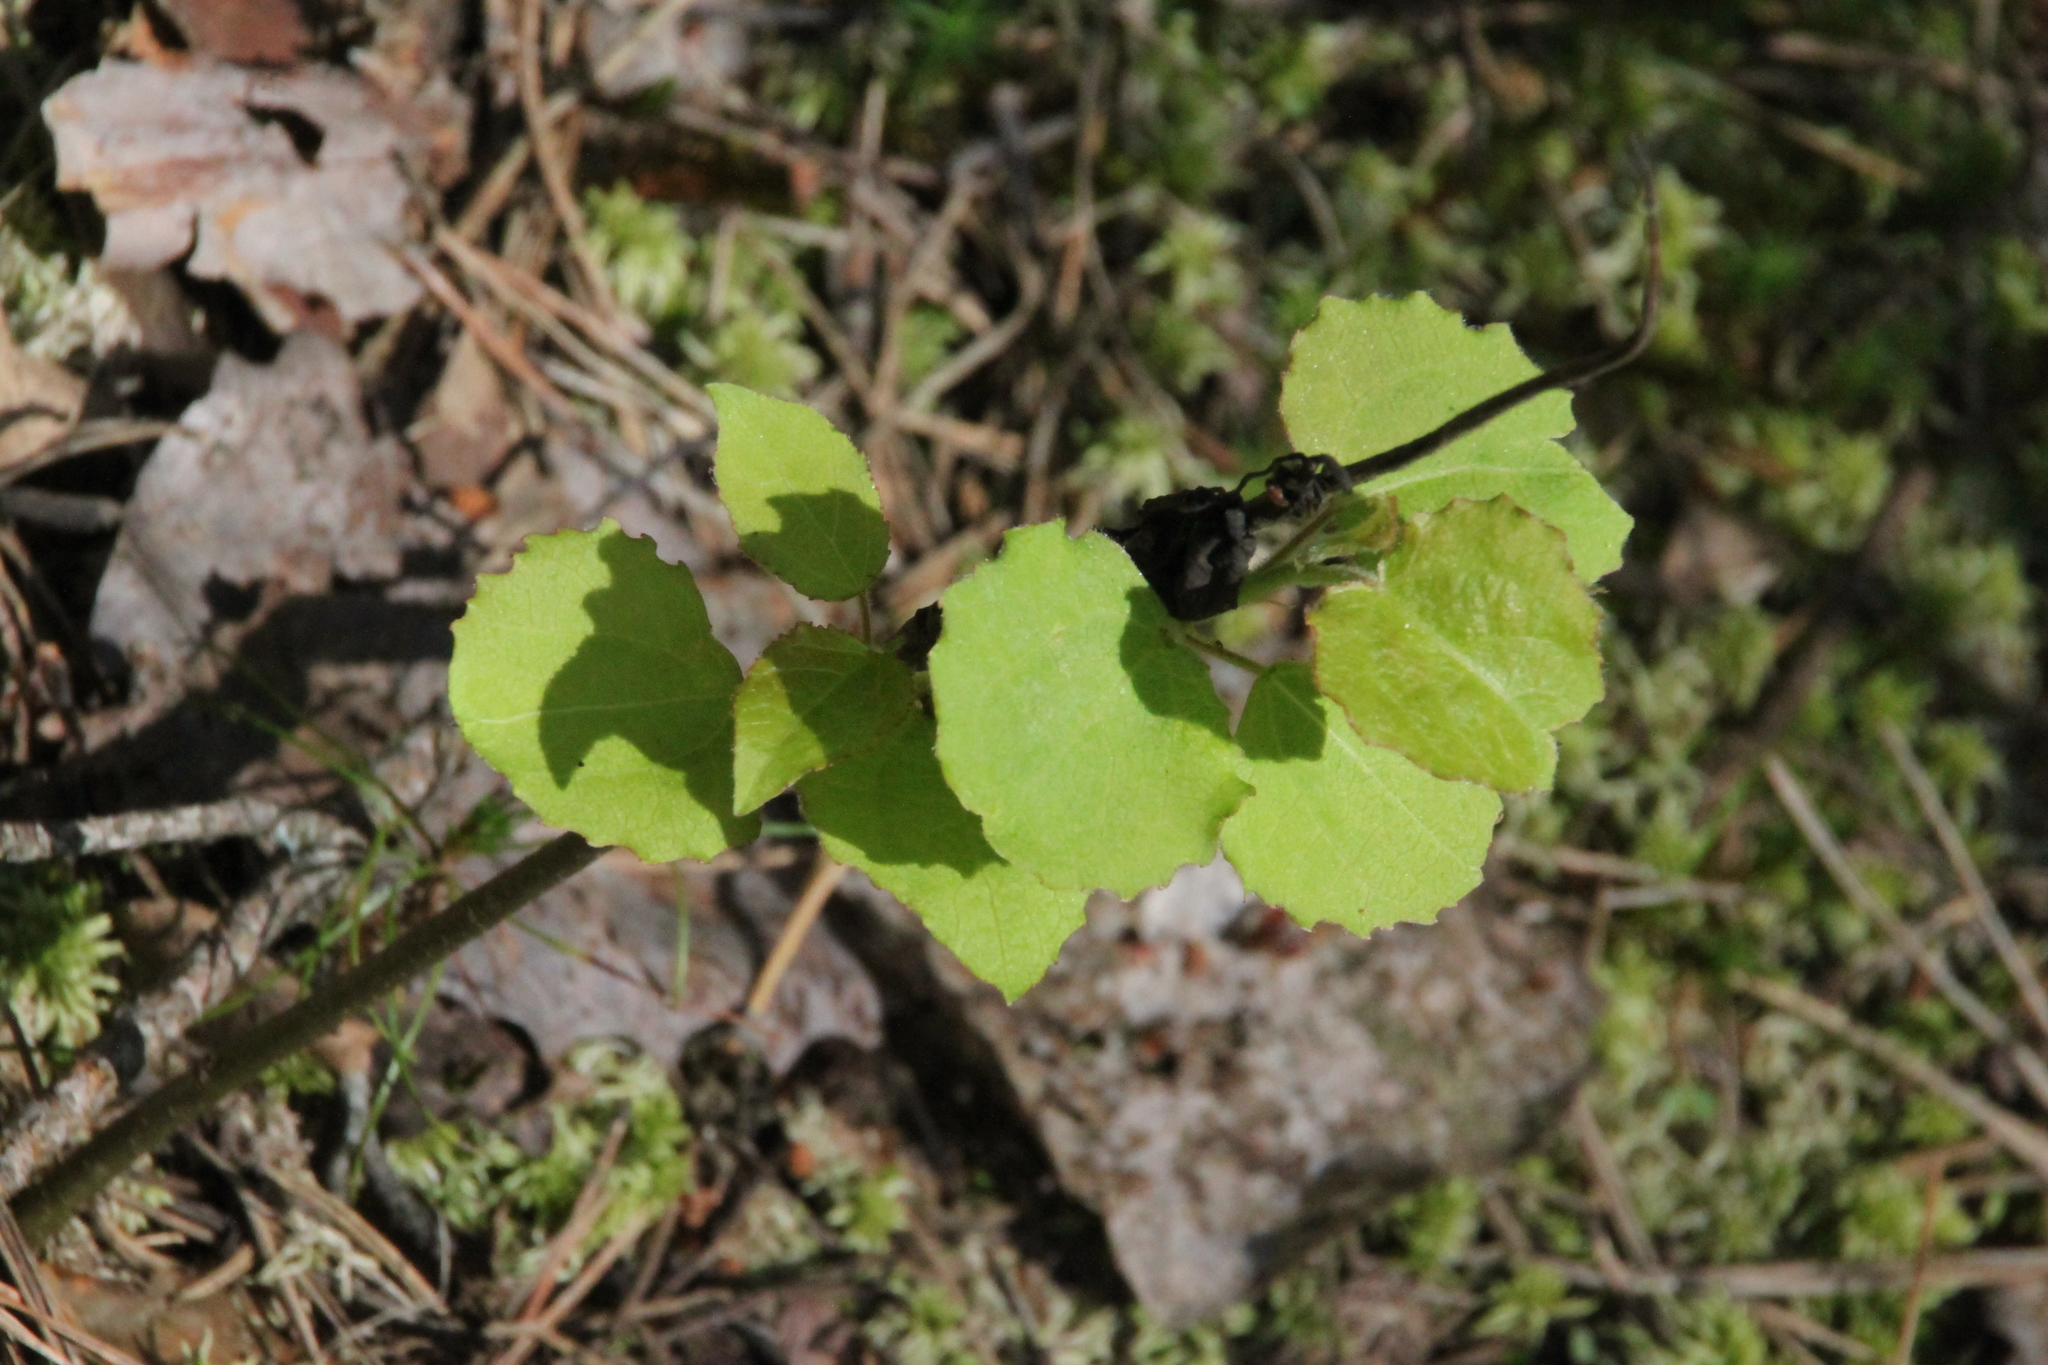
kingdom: Plantae
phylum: Tracheophyta
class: Magnoliopsida
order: Malpighiales
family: Salicaceae
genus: Populus
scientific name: Populus tremula
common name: European aspen
